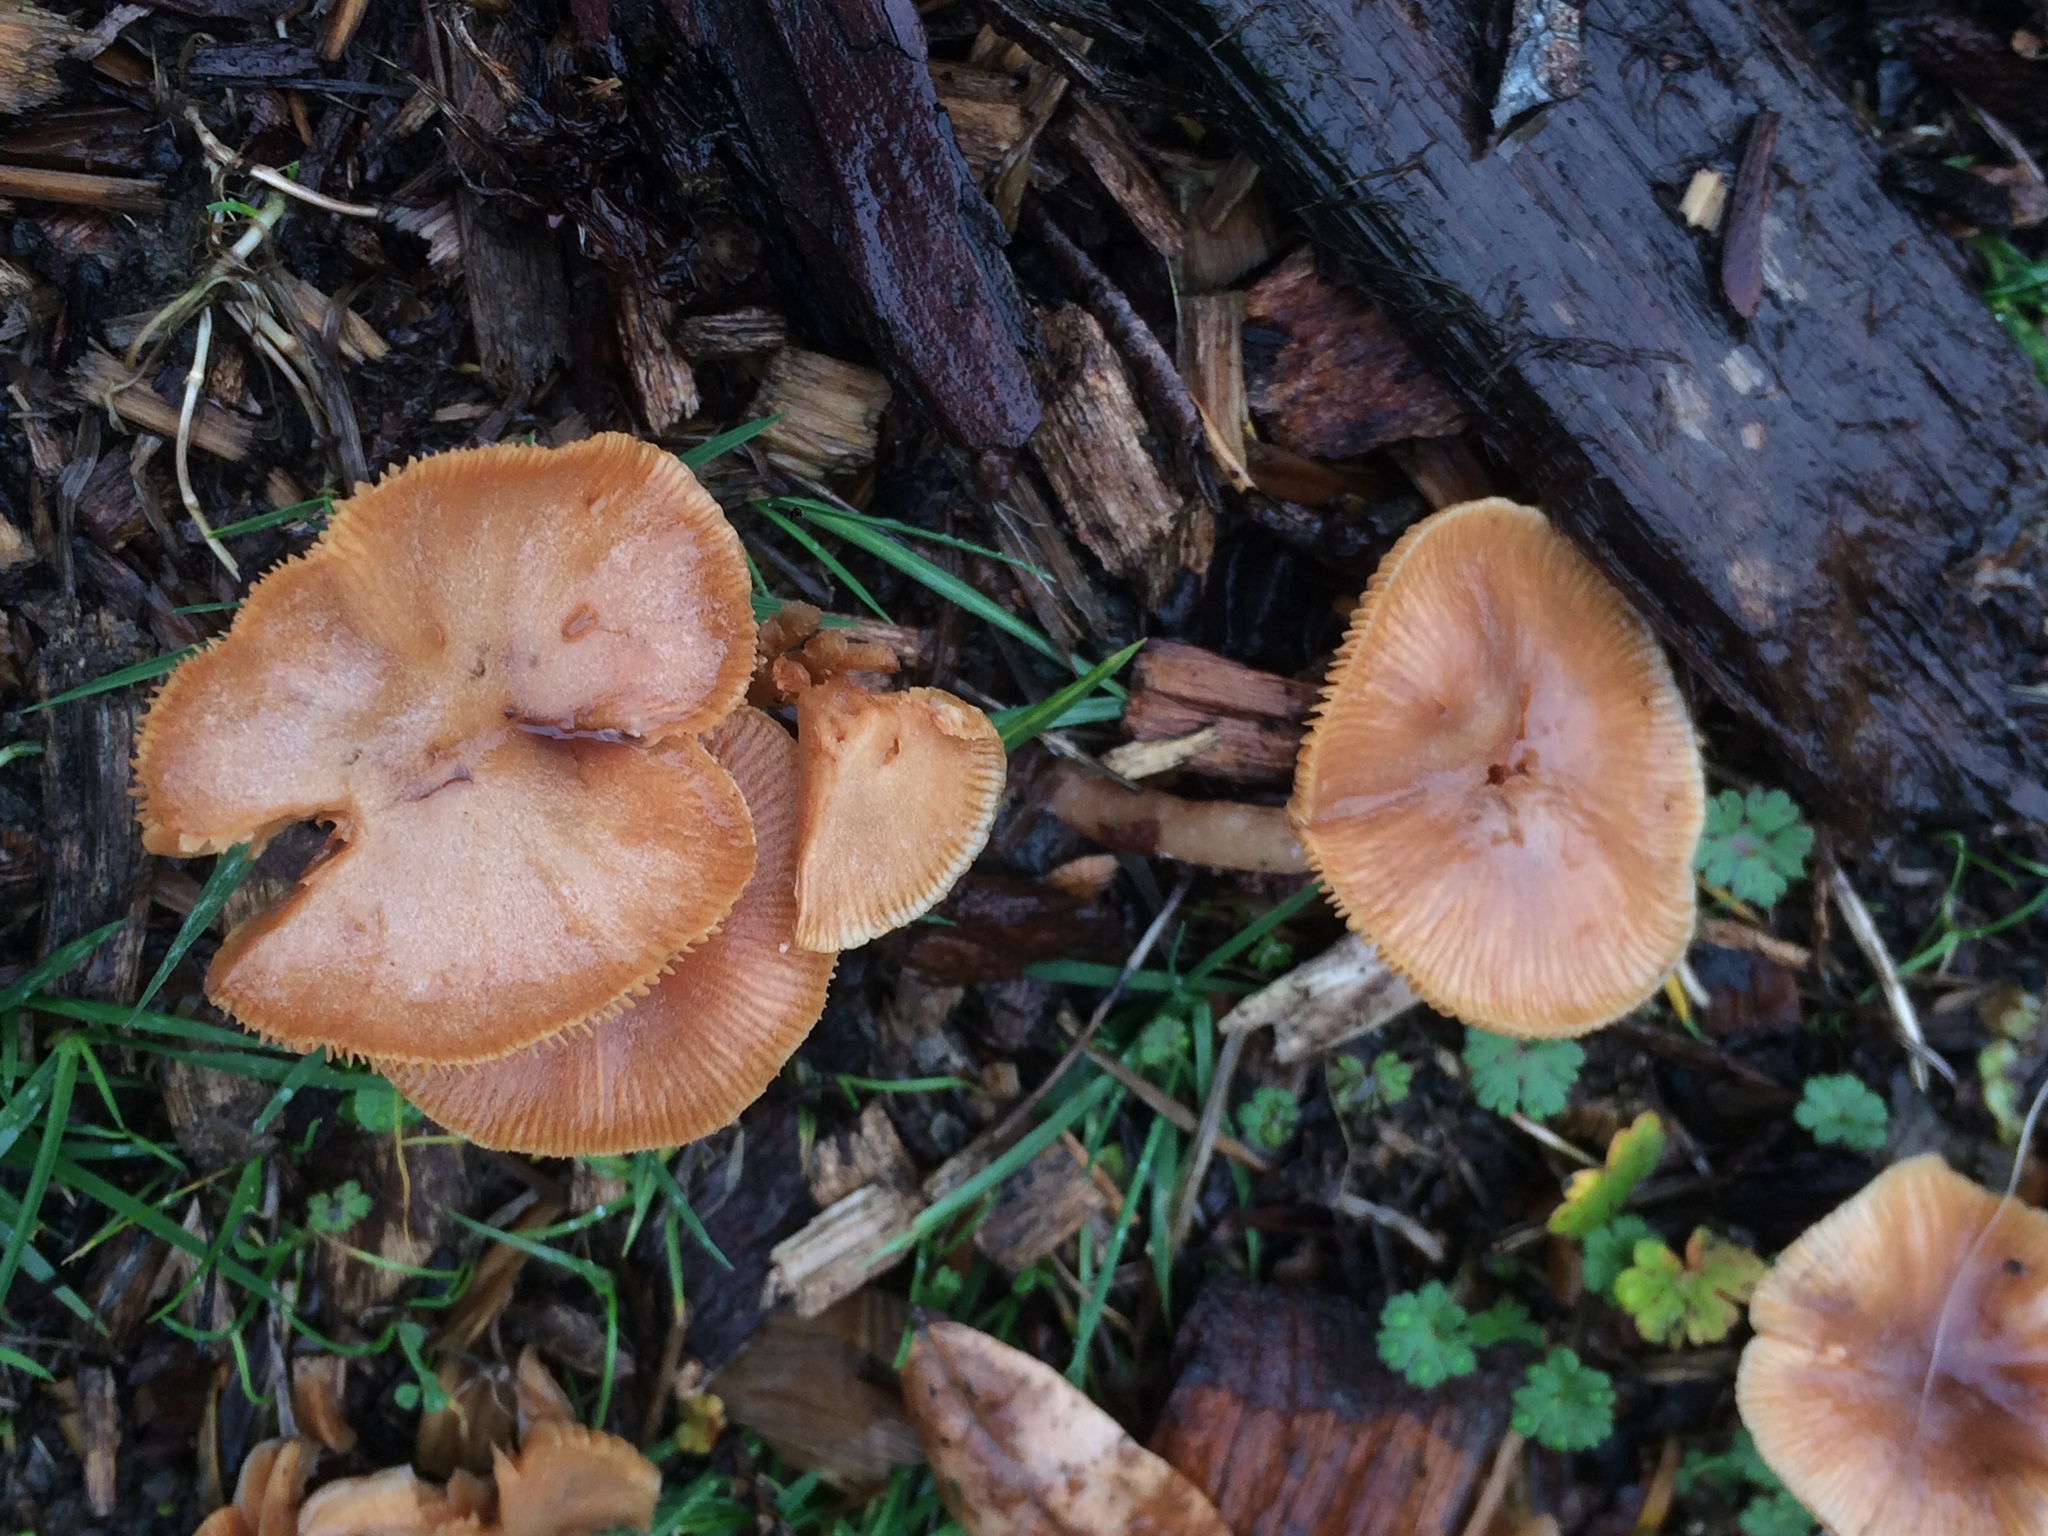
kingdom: Fungi
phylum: Basidiomycota
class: Agaricomycetes
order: Agaricales
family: Tubariaceae
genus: Tubaria
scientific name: Tubaria furfuracea
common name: Scurfy twiglet
